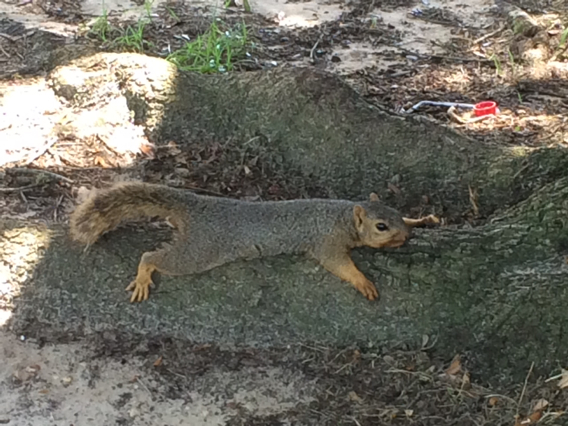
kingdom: Animalia
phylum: Chordata
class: Mammalia
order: Rodentia
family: Sciuridae
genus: Sciurus
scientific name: Sciurus niger
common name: Fox squirrel
